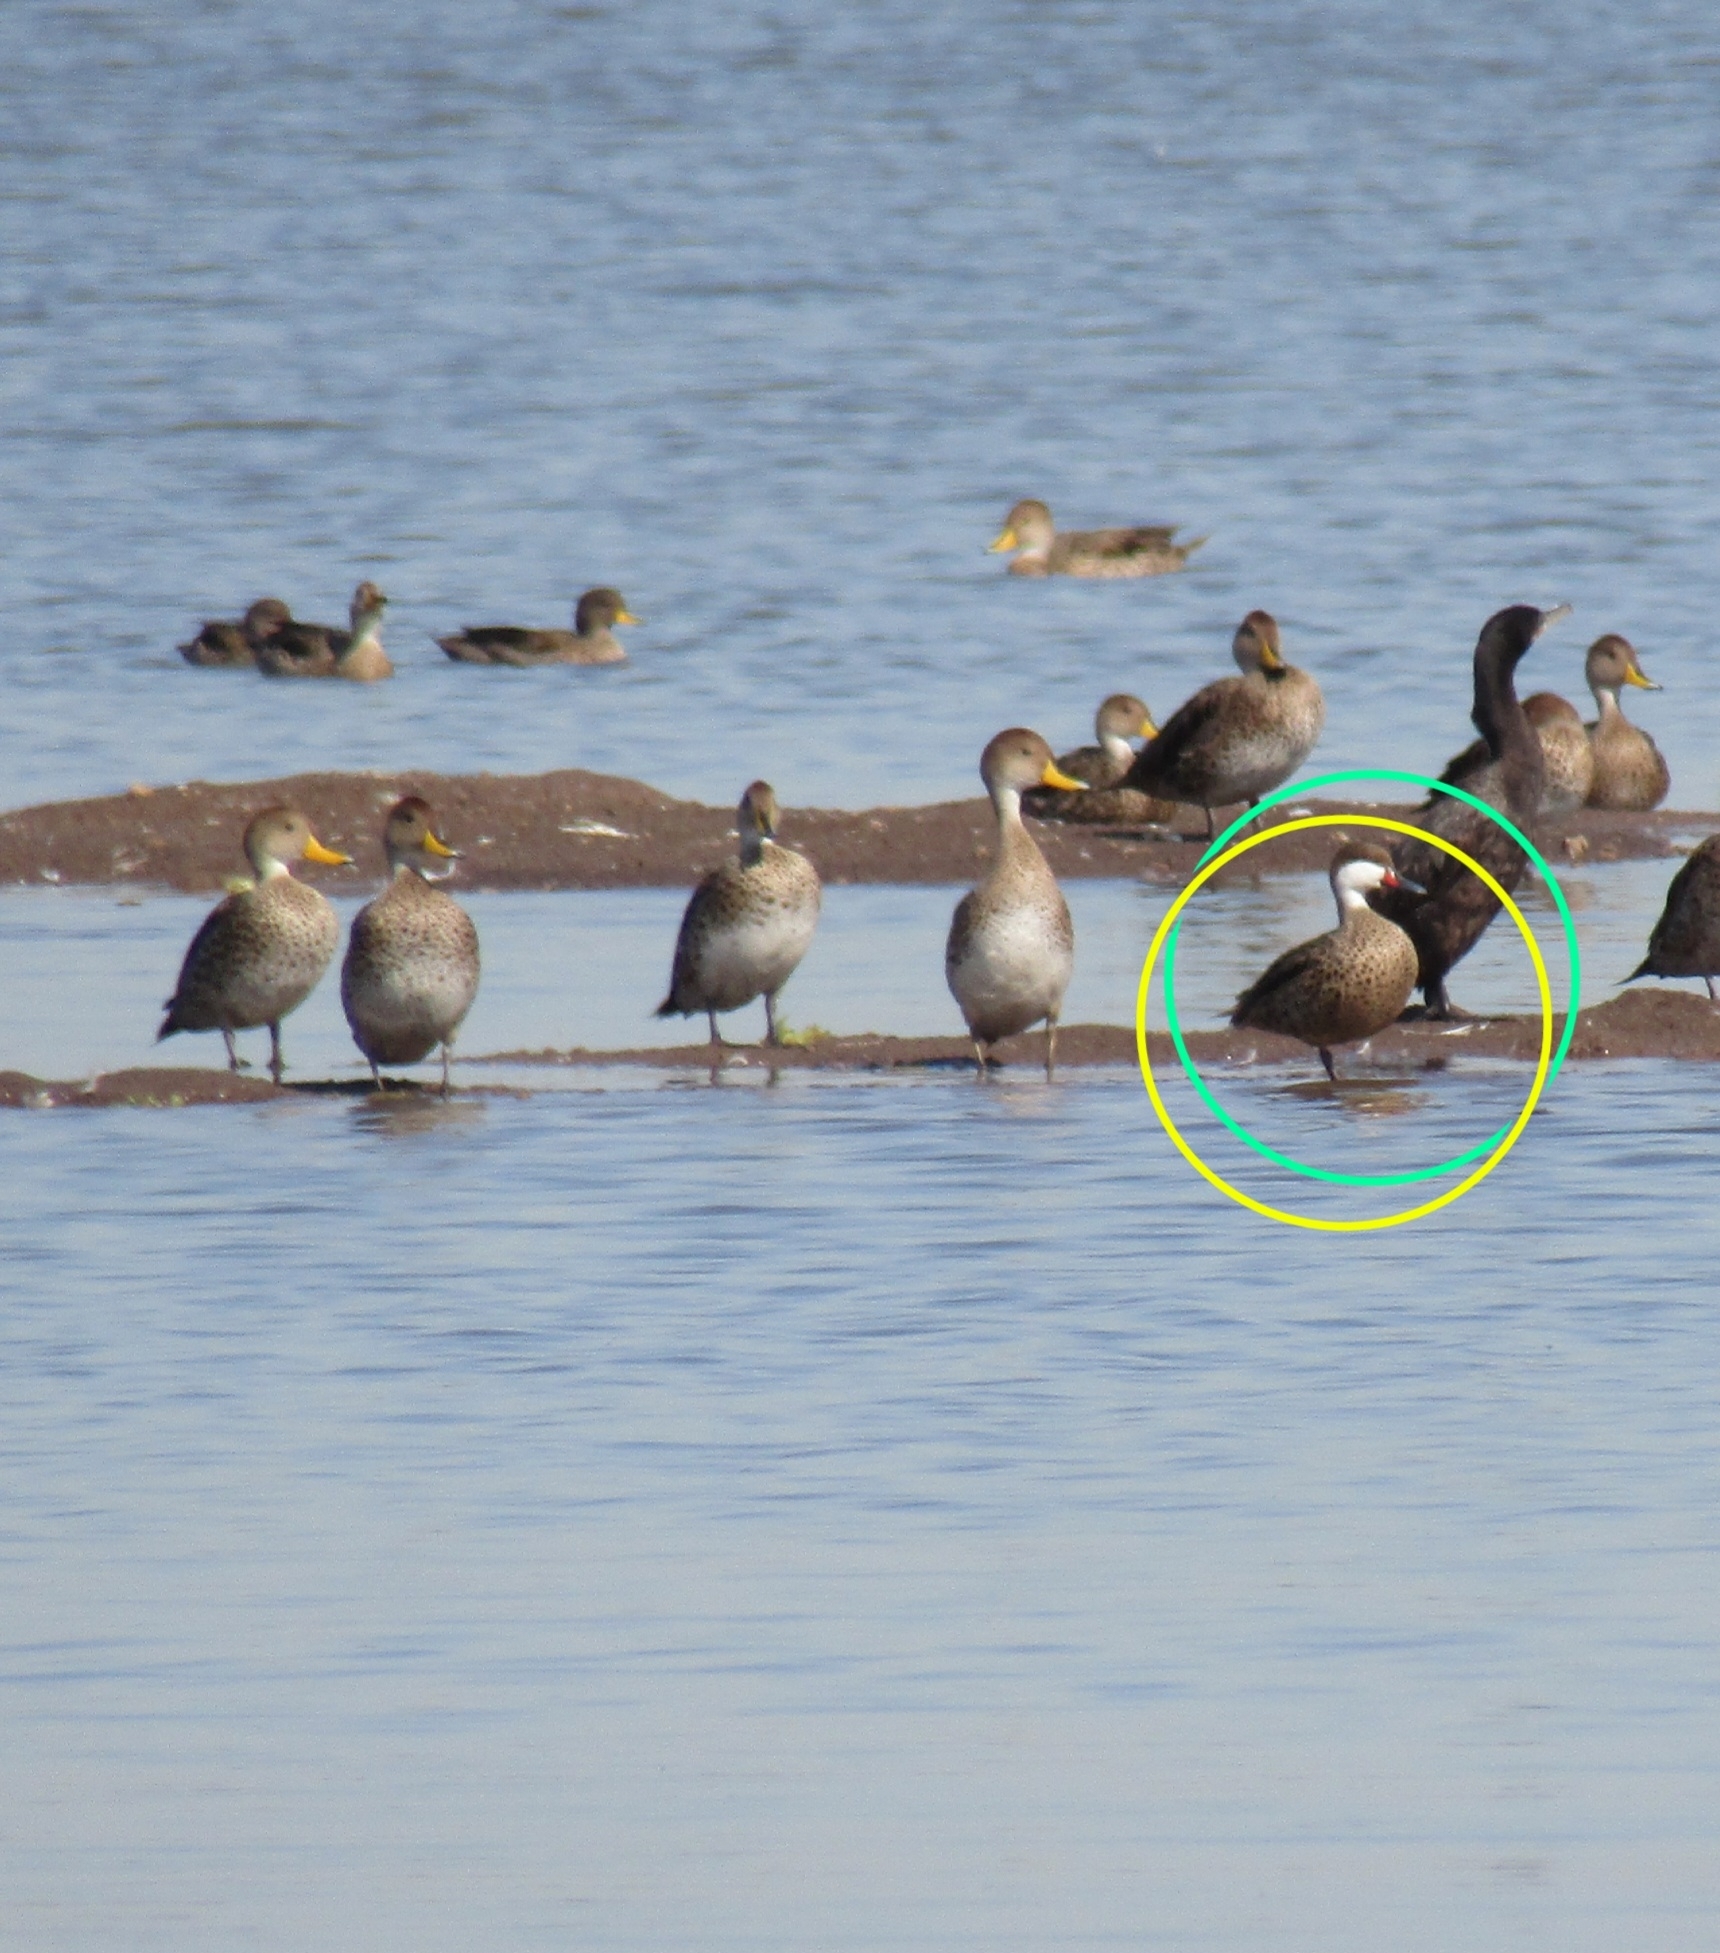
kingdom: Animalia
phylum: Chordata
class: Aves
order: Anseriformes
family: Anatidae
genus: Anas
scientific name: Anas bahamensis
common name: White-cheeked pintail
